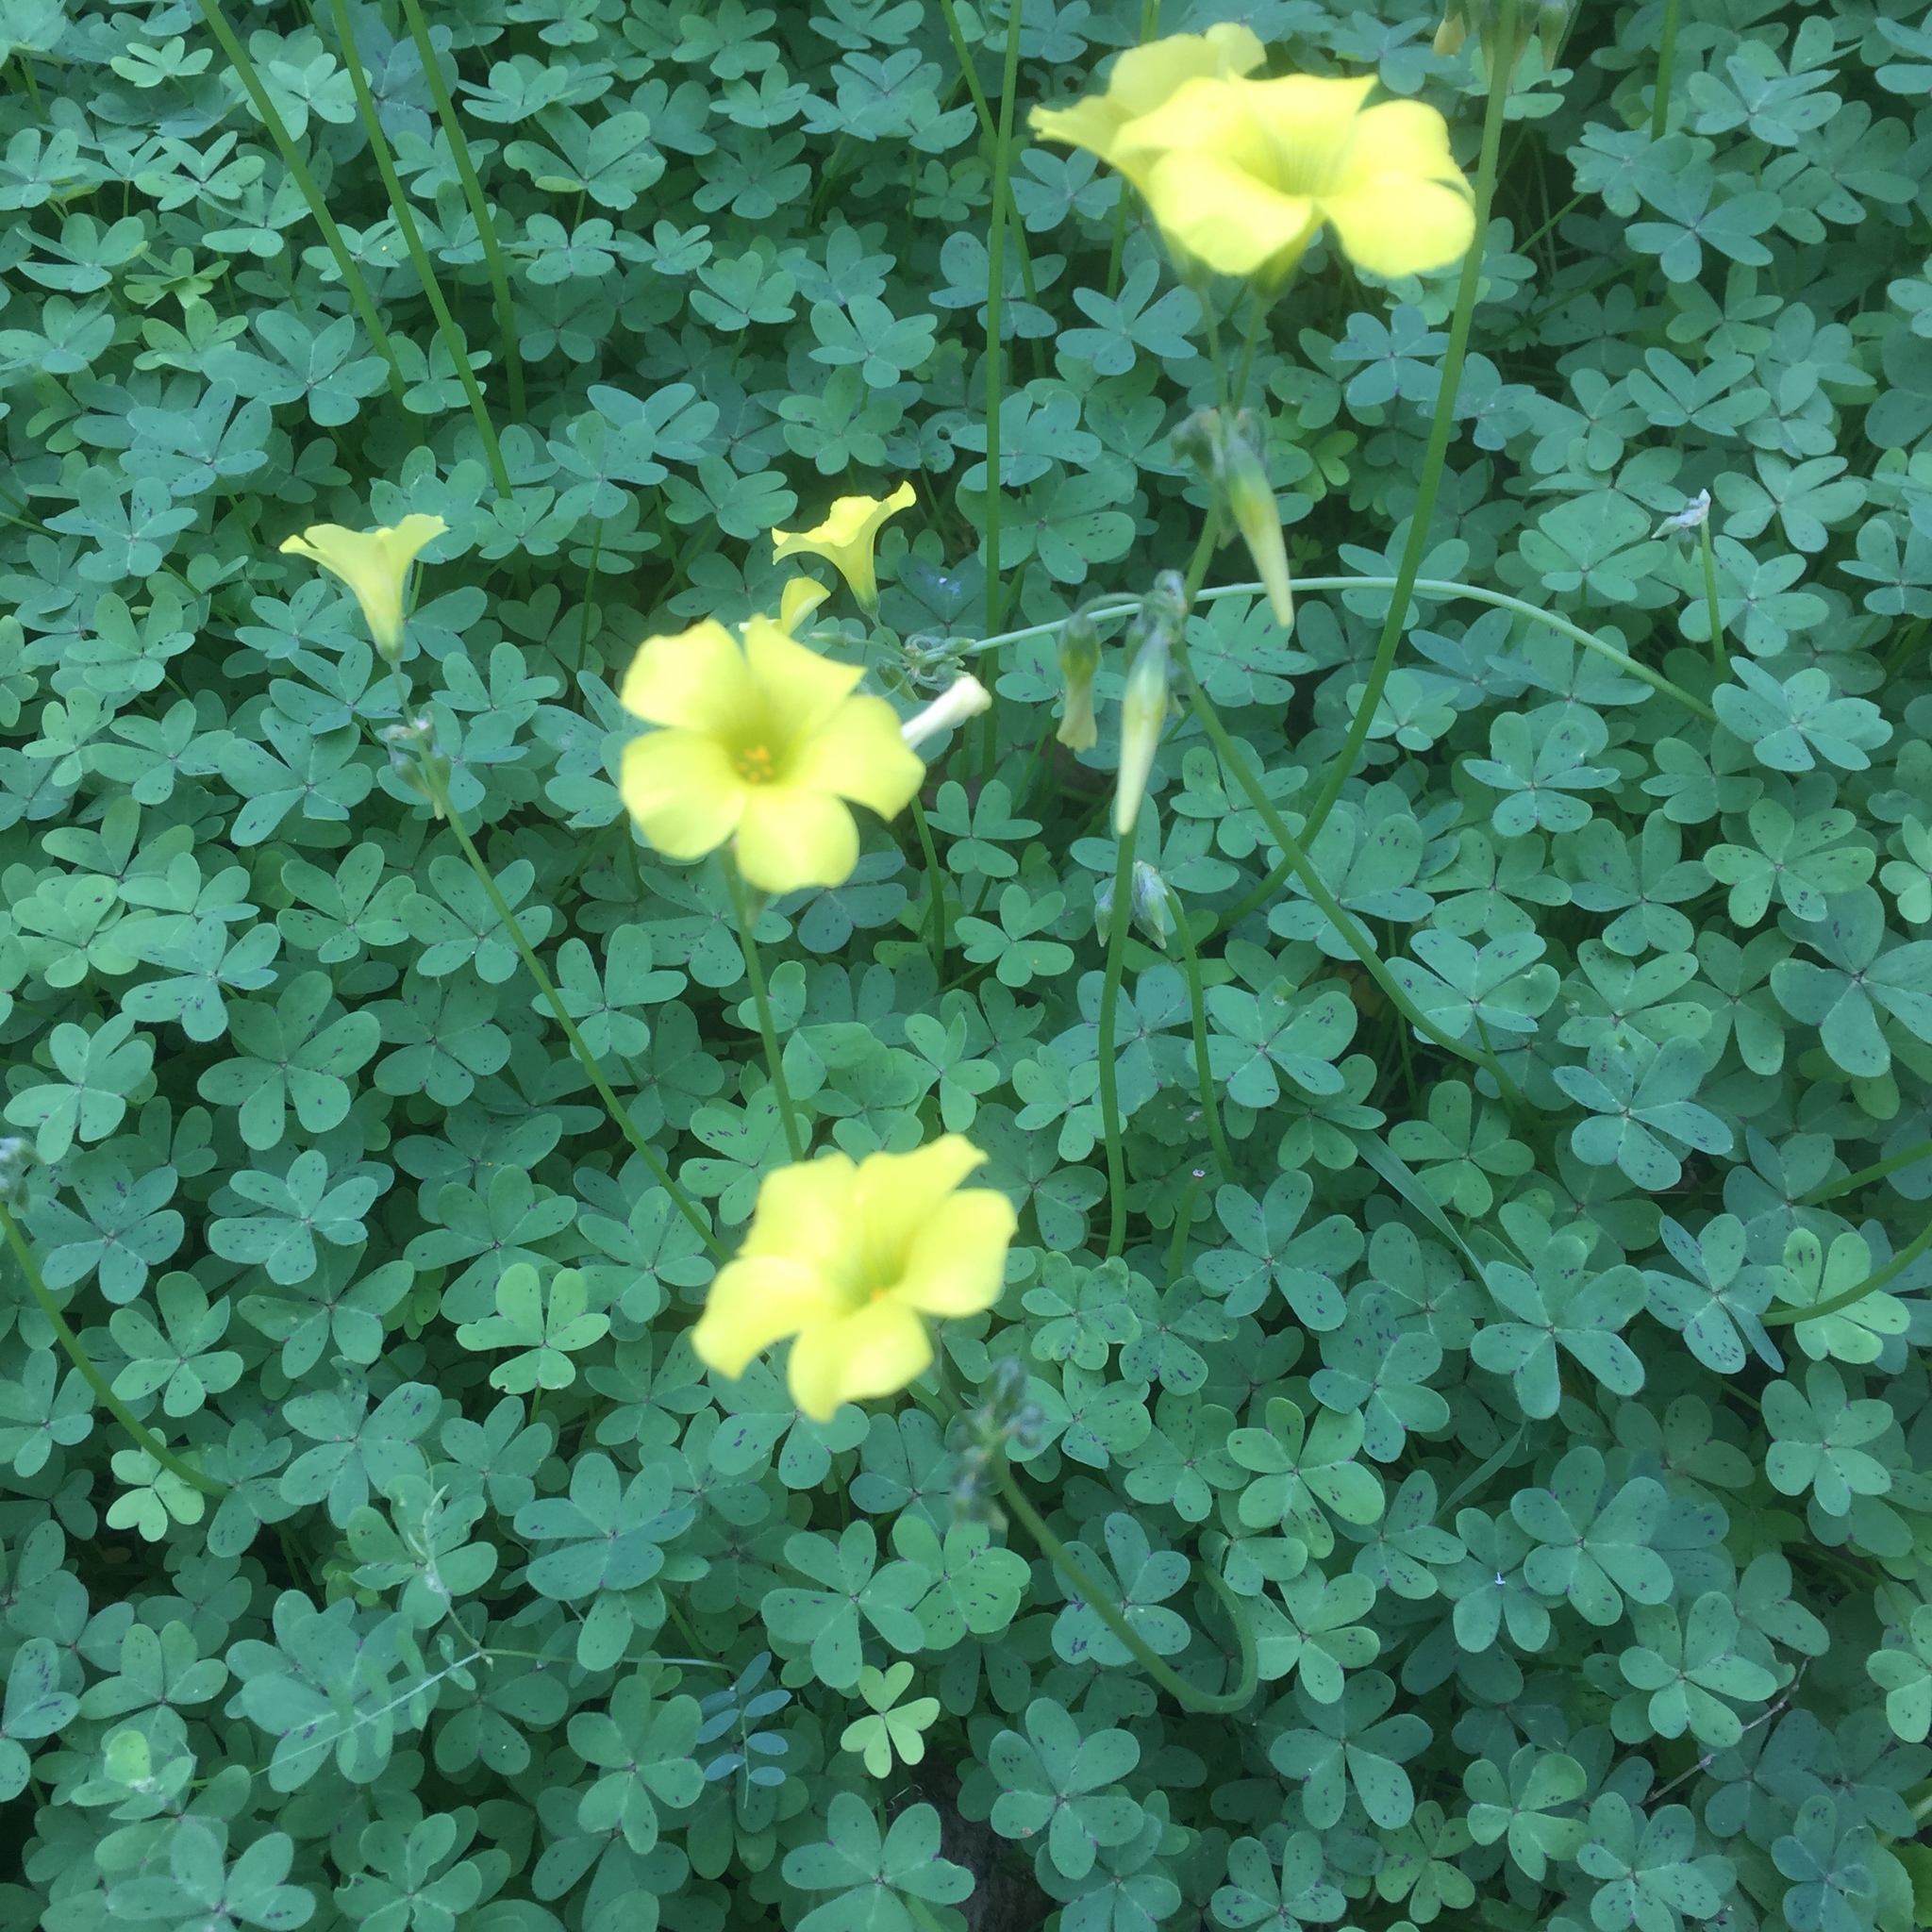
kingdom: Plantae
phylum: Tracheophyta
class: Magnoliopsida
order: Oxalidales
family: Oxalidaceae
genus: Oxalis
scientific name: Oxalis pes-caprae
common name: Bermuda-buttercup
